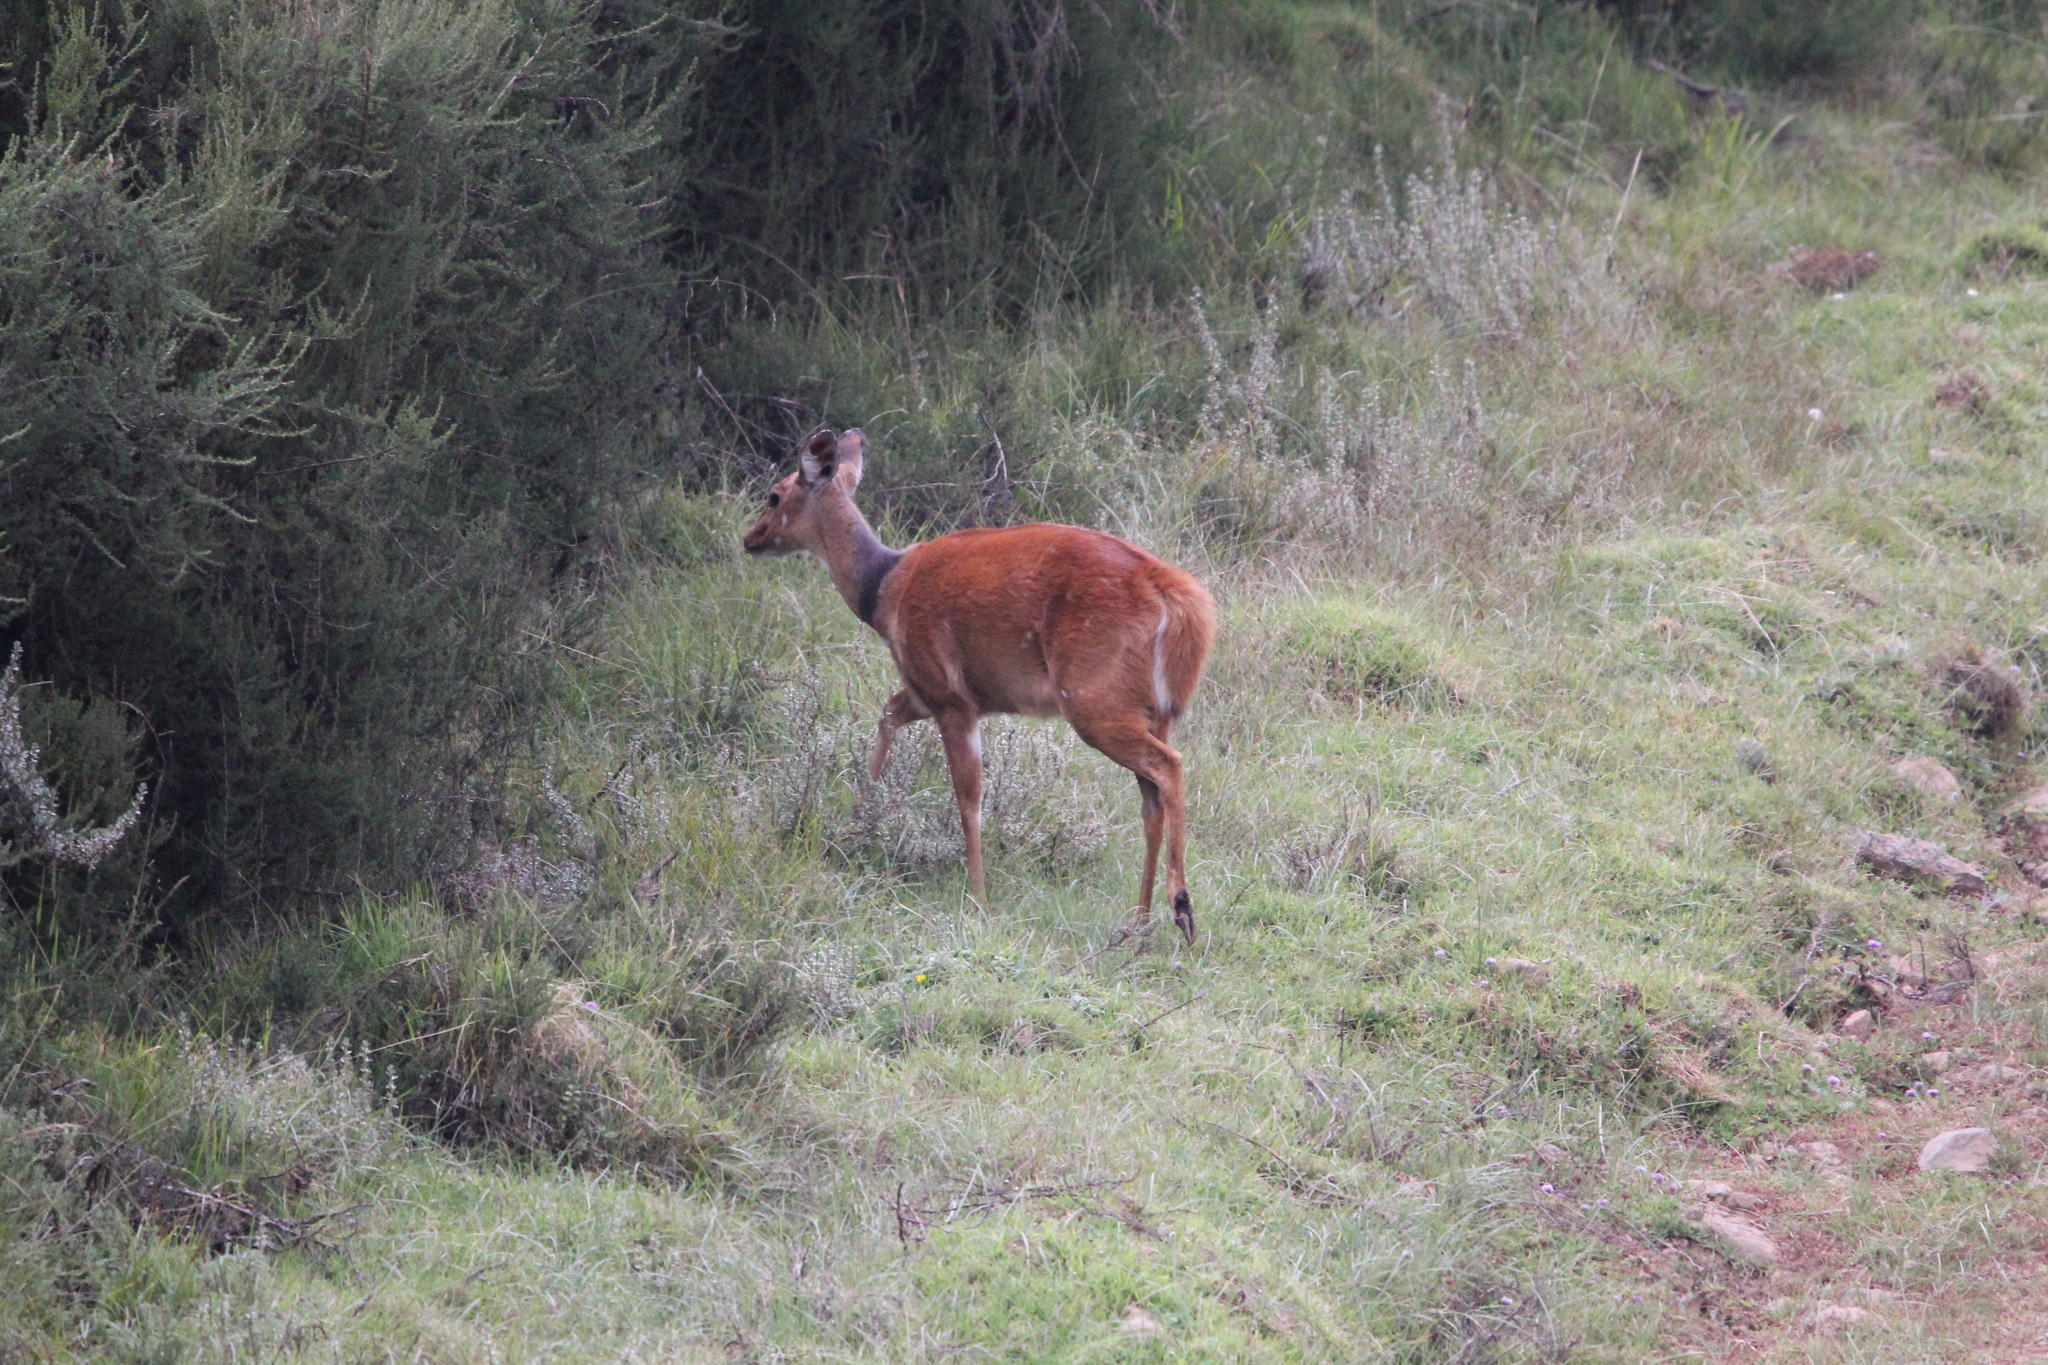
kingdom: Animalia
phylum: Chordata
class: Mammalia
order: Artiodactyla
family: Bovidae
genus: Tragelaphus
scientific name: Tragelaphus scriptus
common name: Bushbuck
